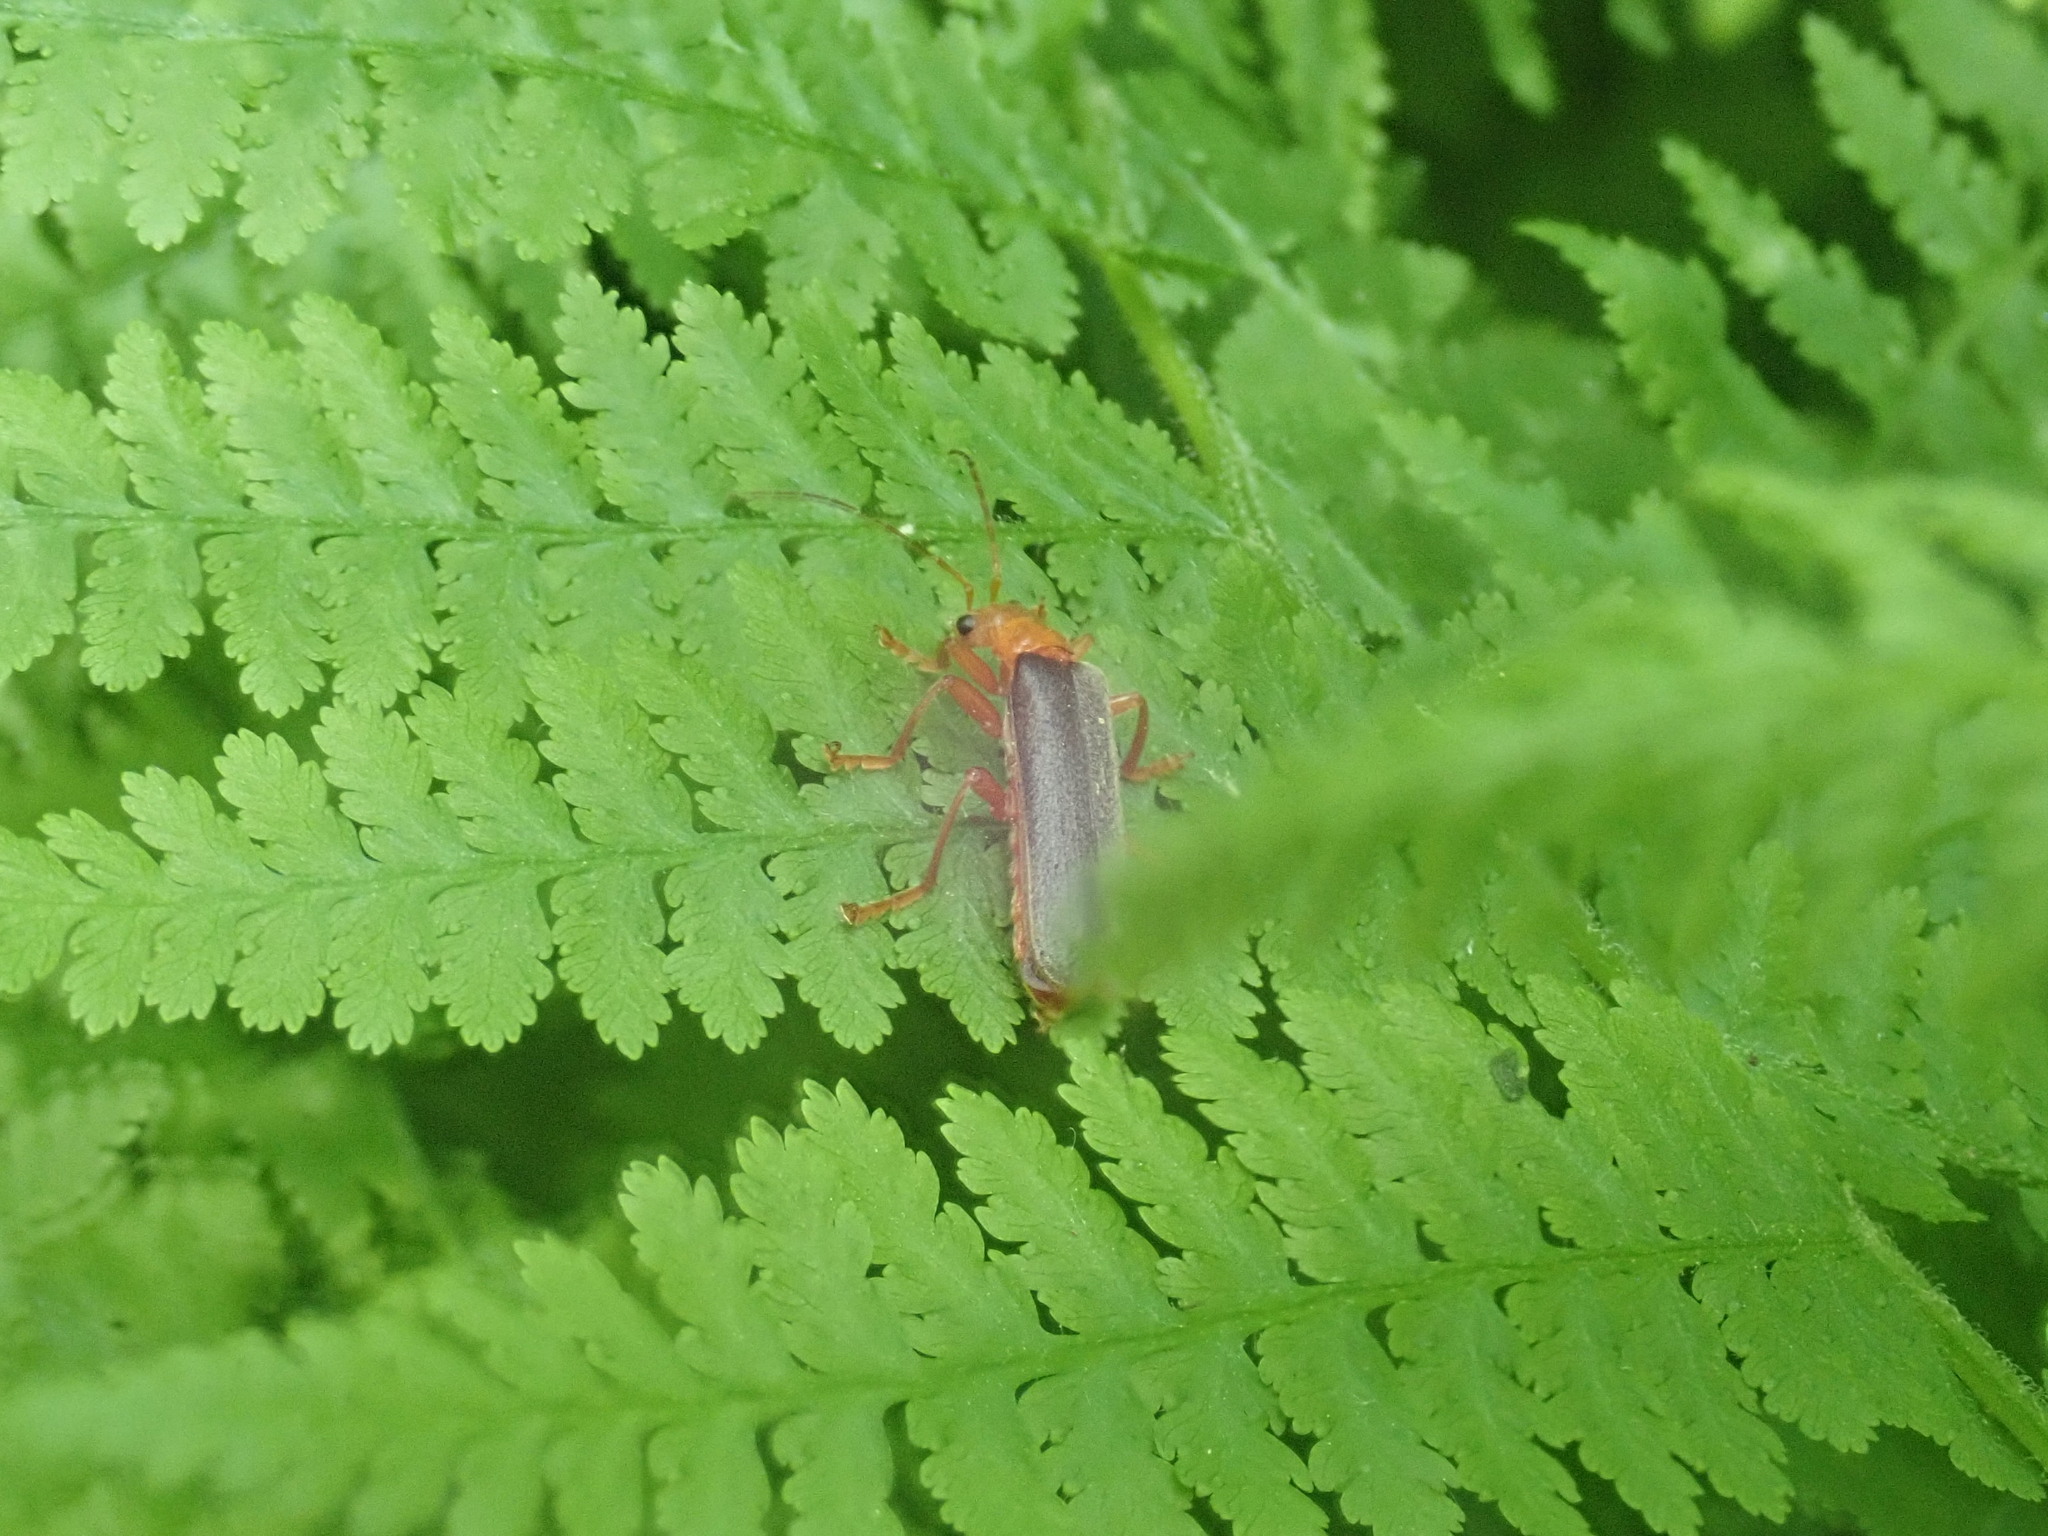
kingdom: Animalia
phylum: Arthropoda
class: Insecta
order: Coleoptera
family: Cantharidae
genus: Pacificanthia
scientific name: Pacificanthia rotundicollis
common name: Brown leatherwing beetle
